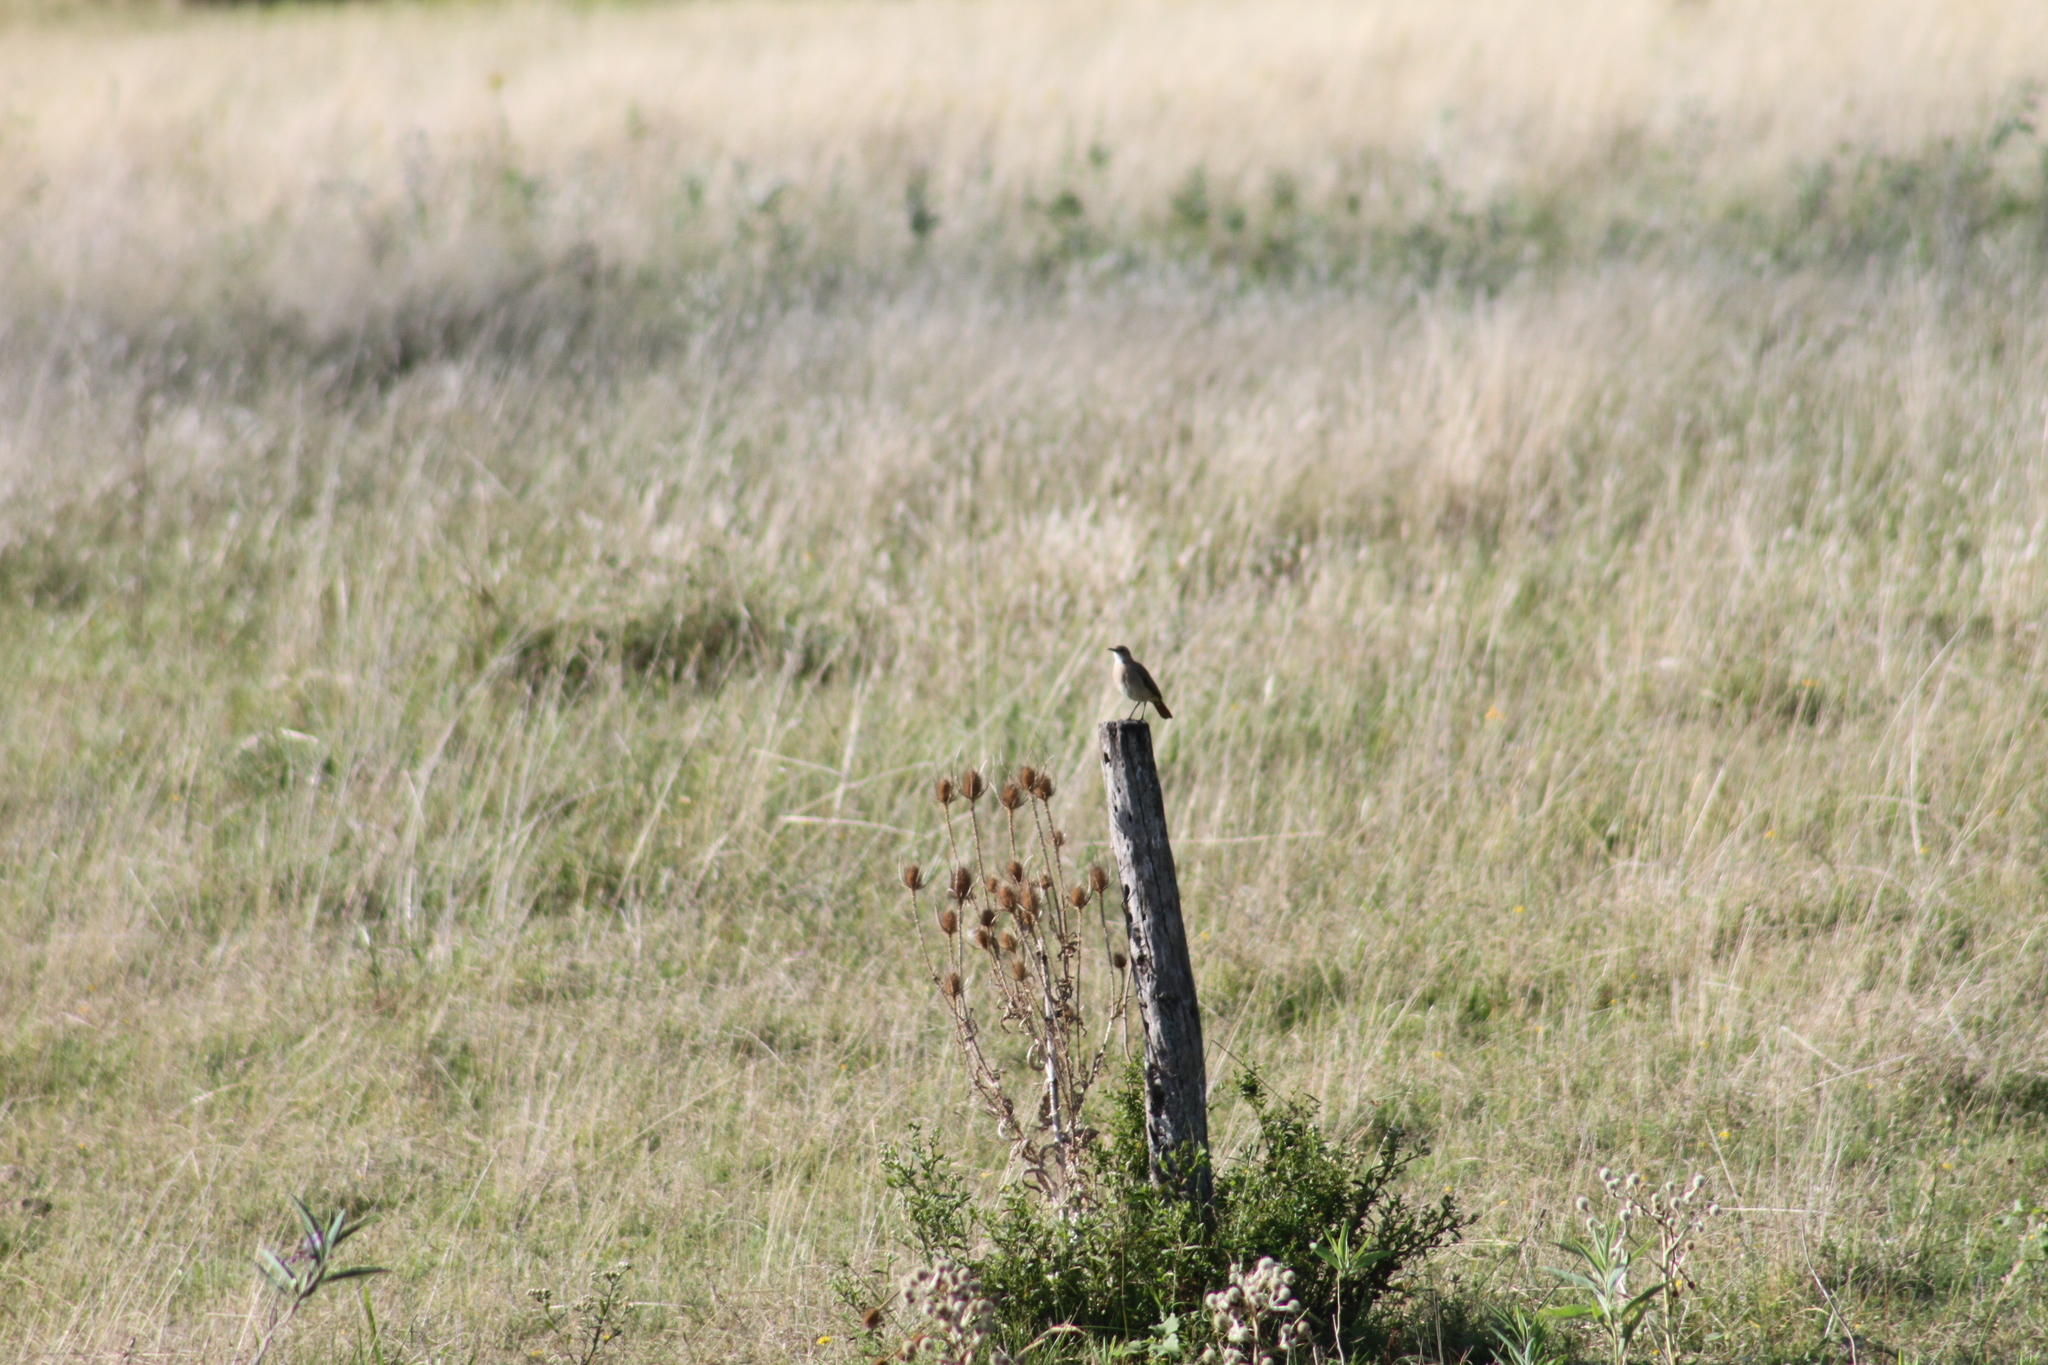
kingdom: Animalia
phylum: Chordata
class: Aves
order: Passeriformes
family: Furnariidae
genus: Furnarius
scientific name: Furnarius rufus
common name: Rufous hornero
